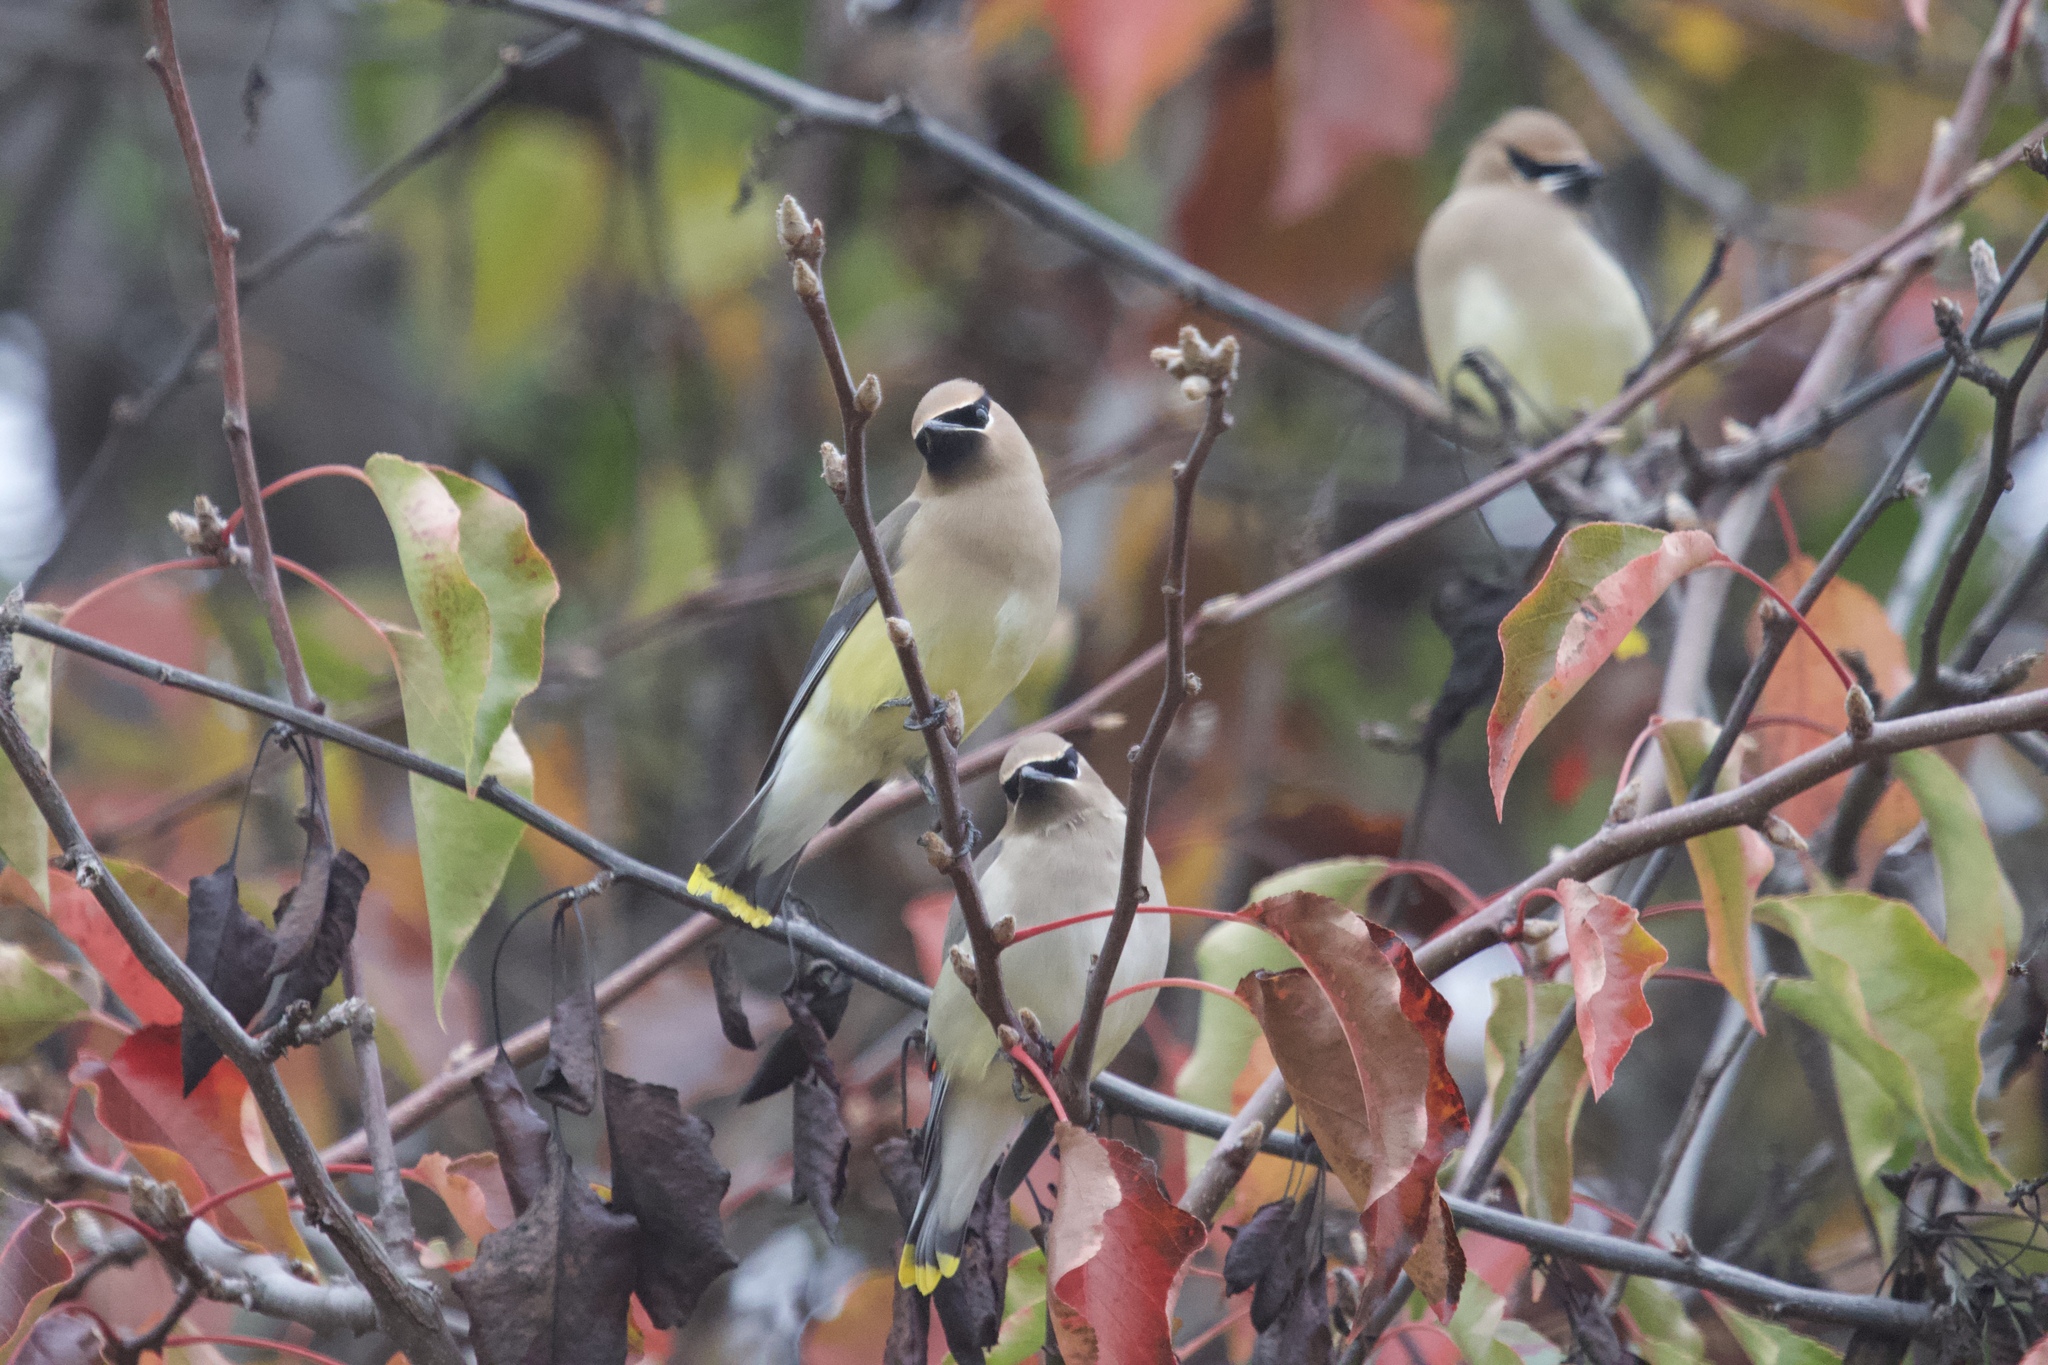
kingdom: Animalia
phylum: Chordata
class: Aves
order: Passeriformes
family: Bombycillidae
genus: Bombycilla
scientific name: Bombycilla cedrorum
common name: Cedar waxwing
